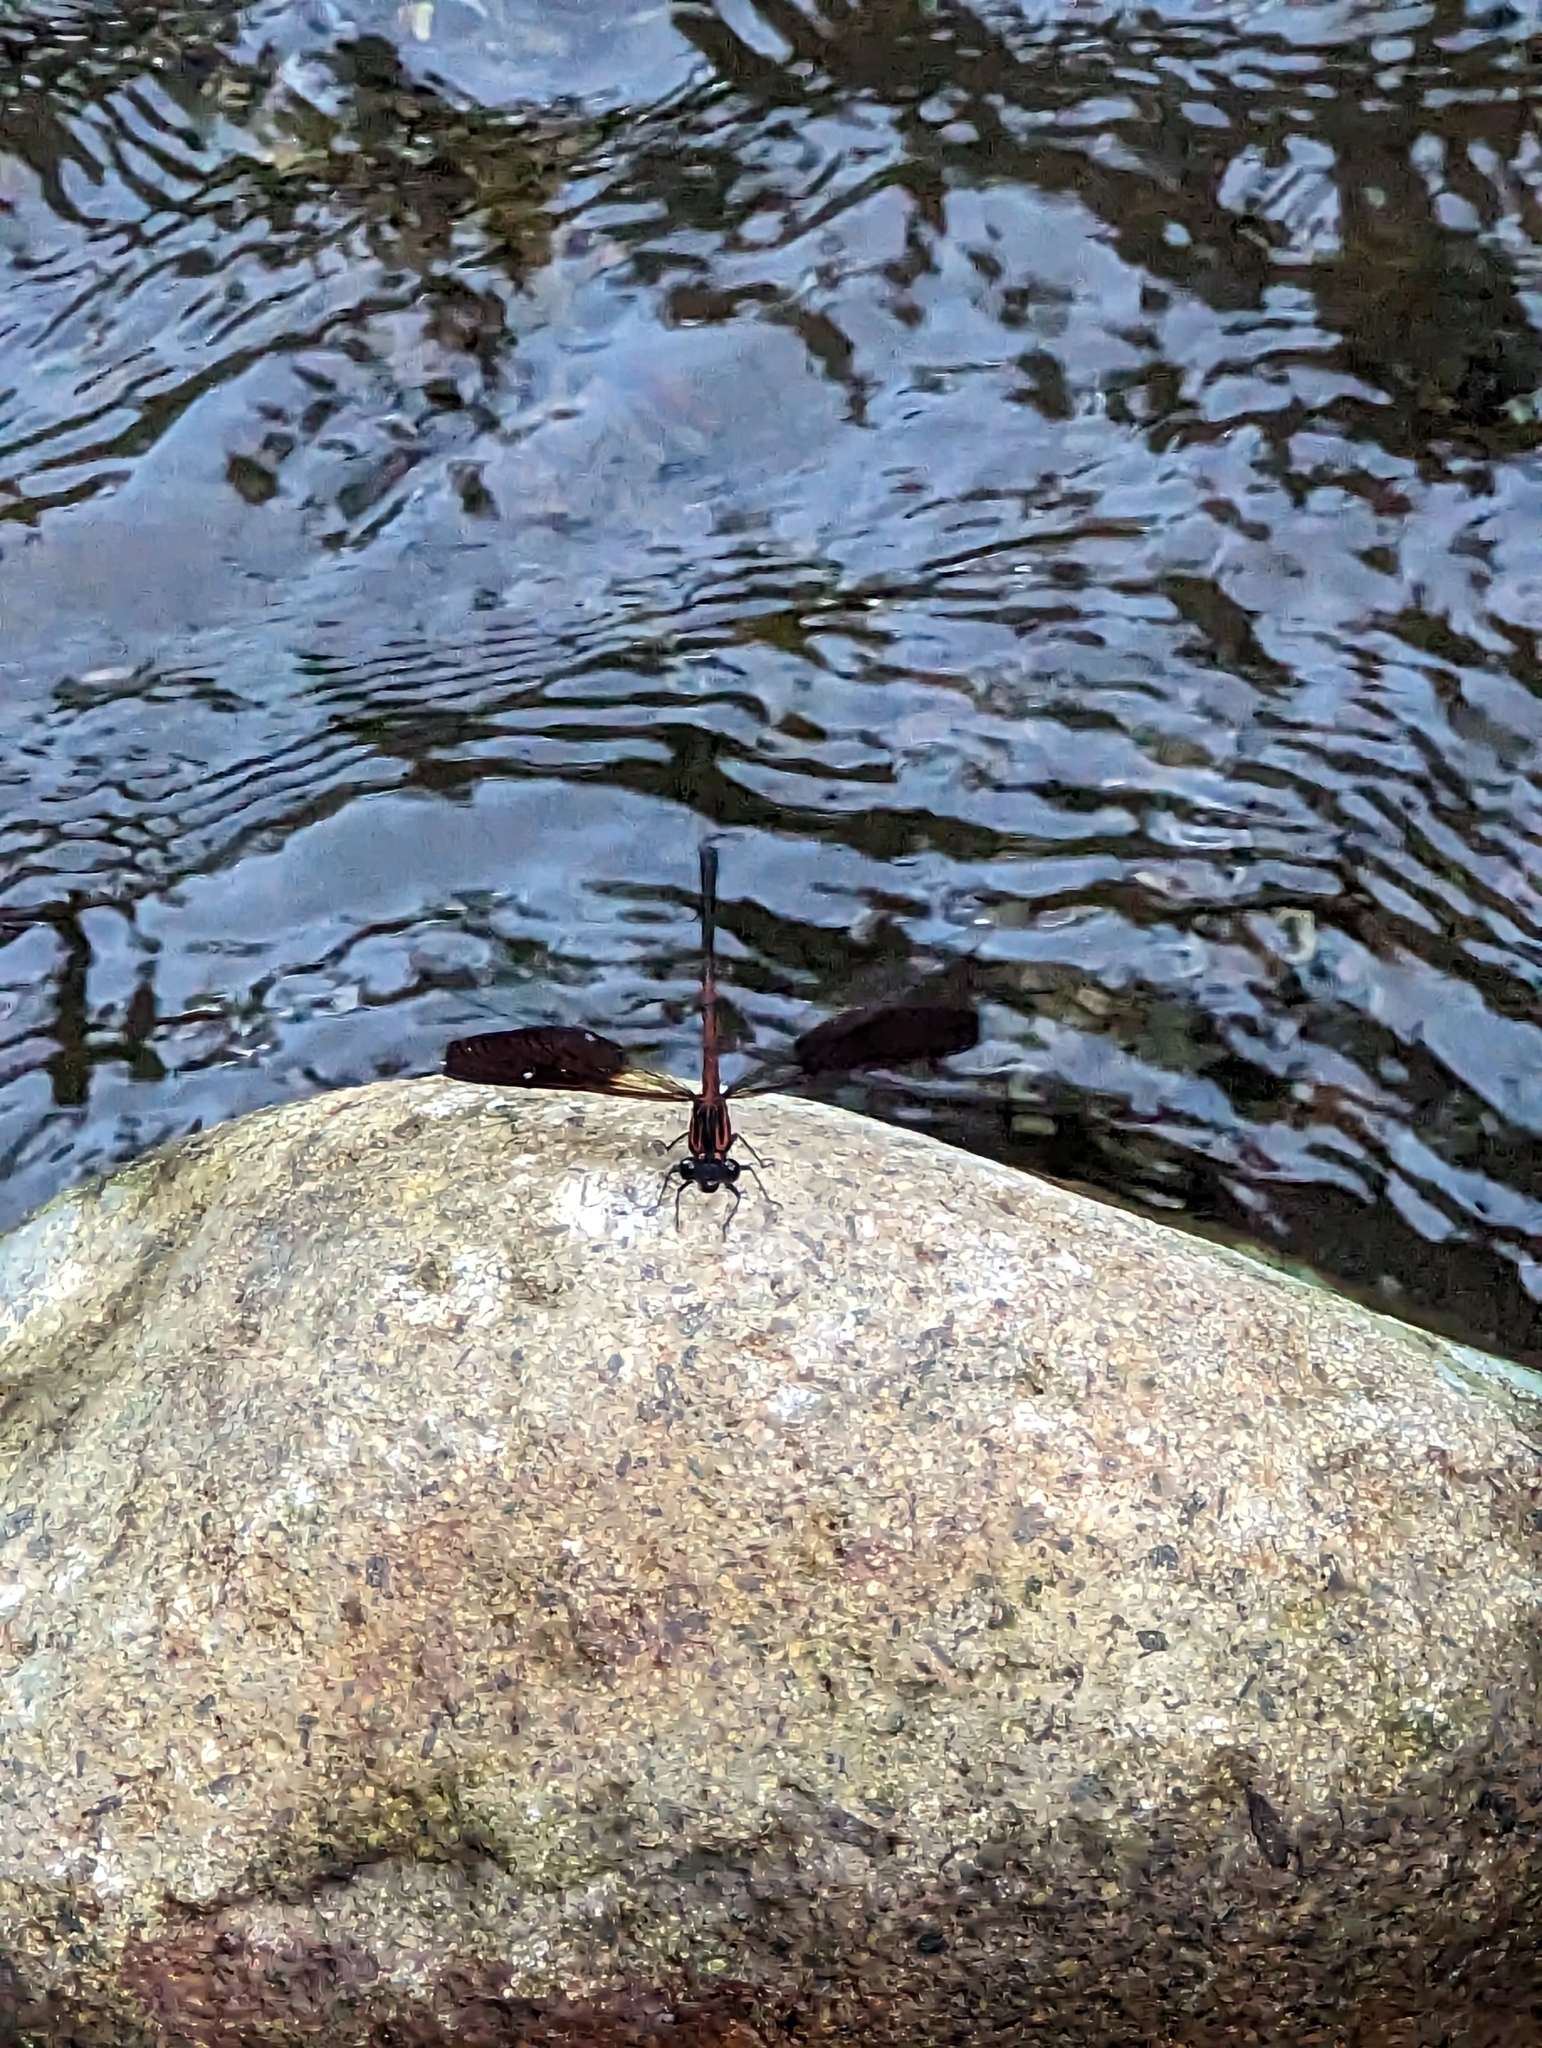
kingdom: Animalia
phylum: Arthropoda
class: Insecta
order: Odonata
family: Euphaeidae
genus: Euphaea
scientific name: Euphaea formosa
